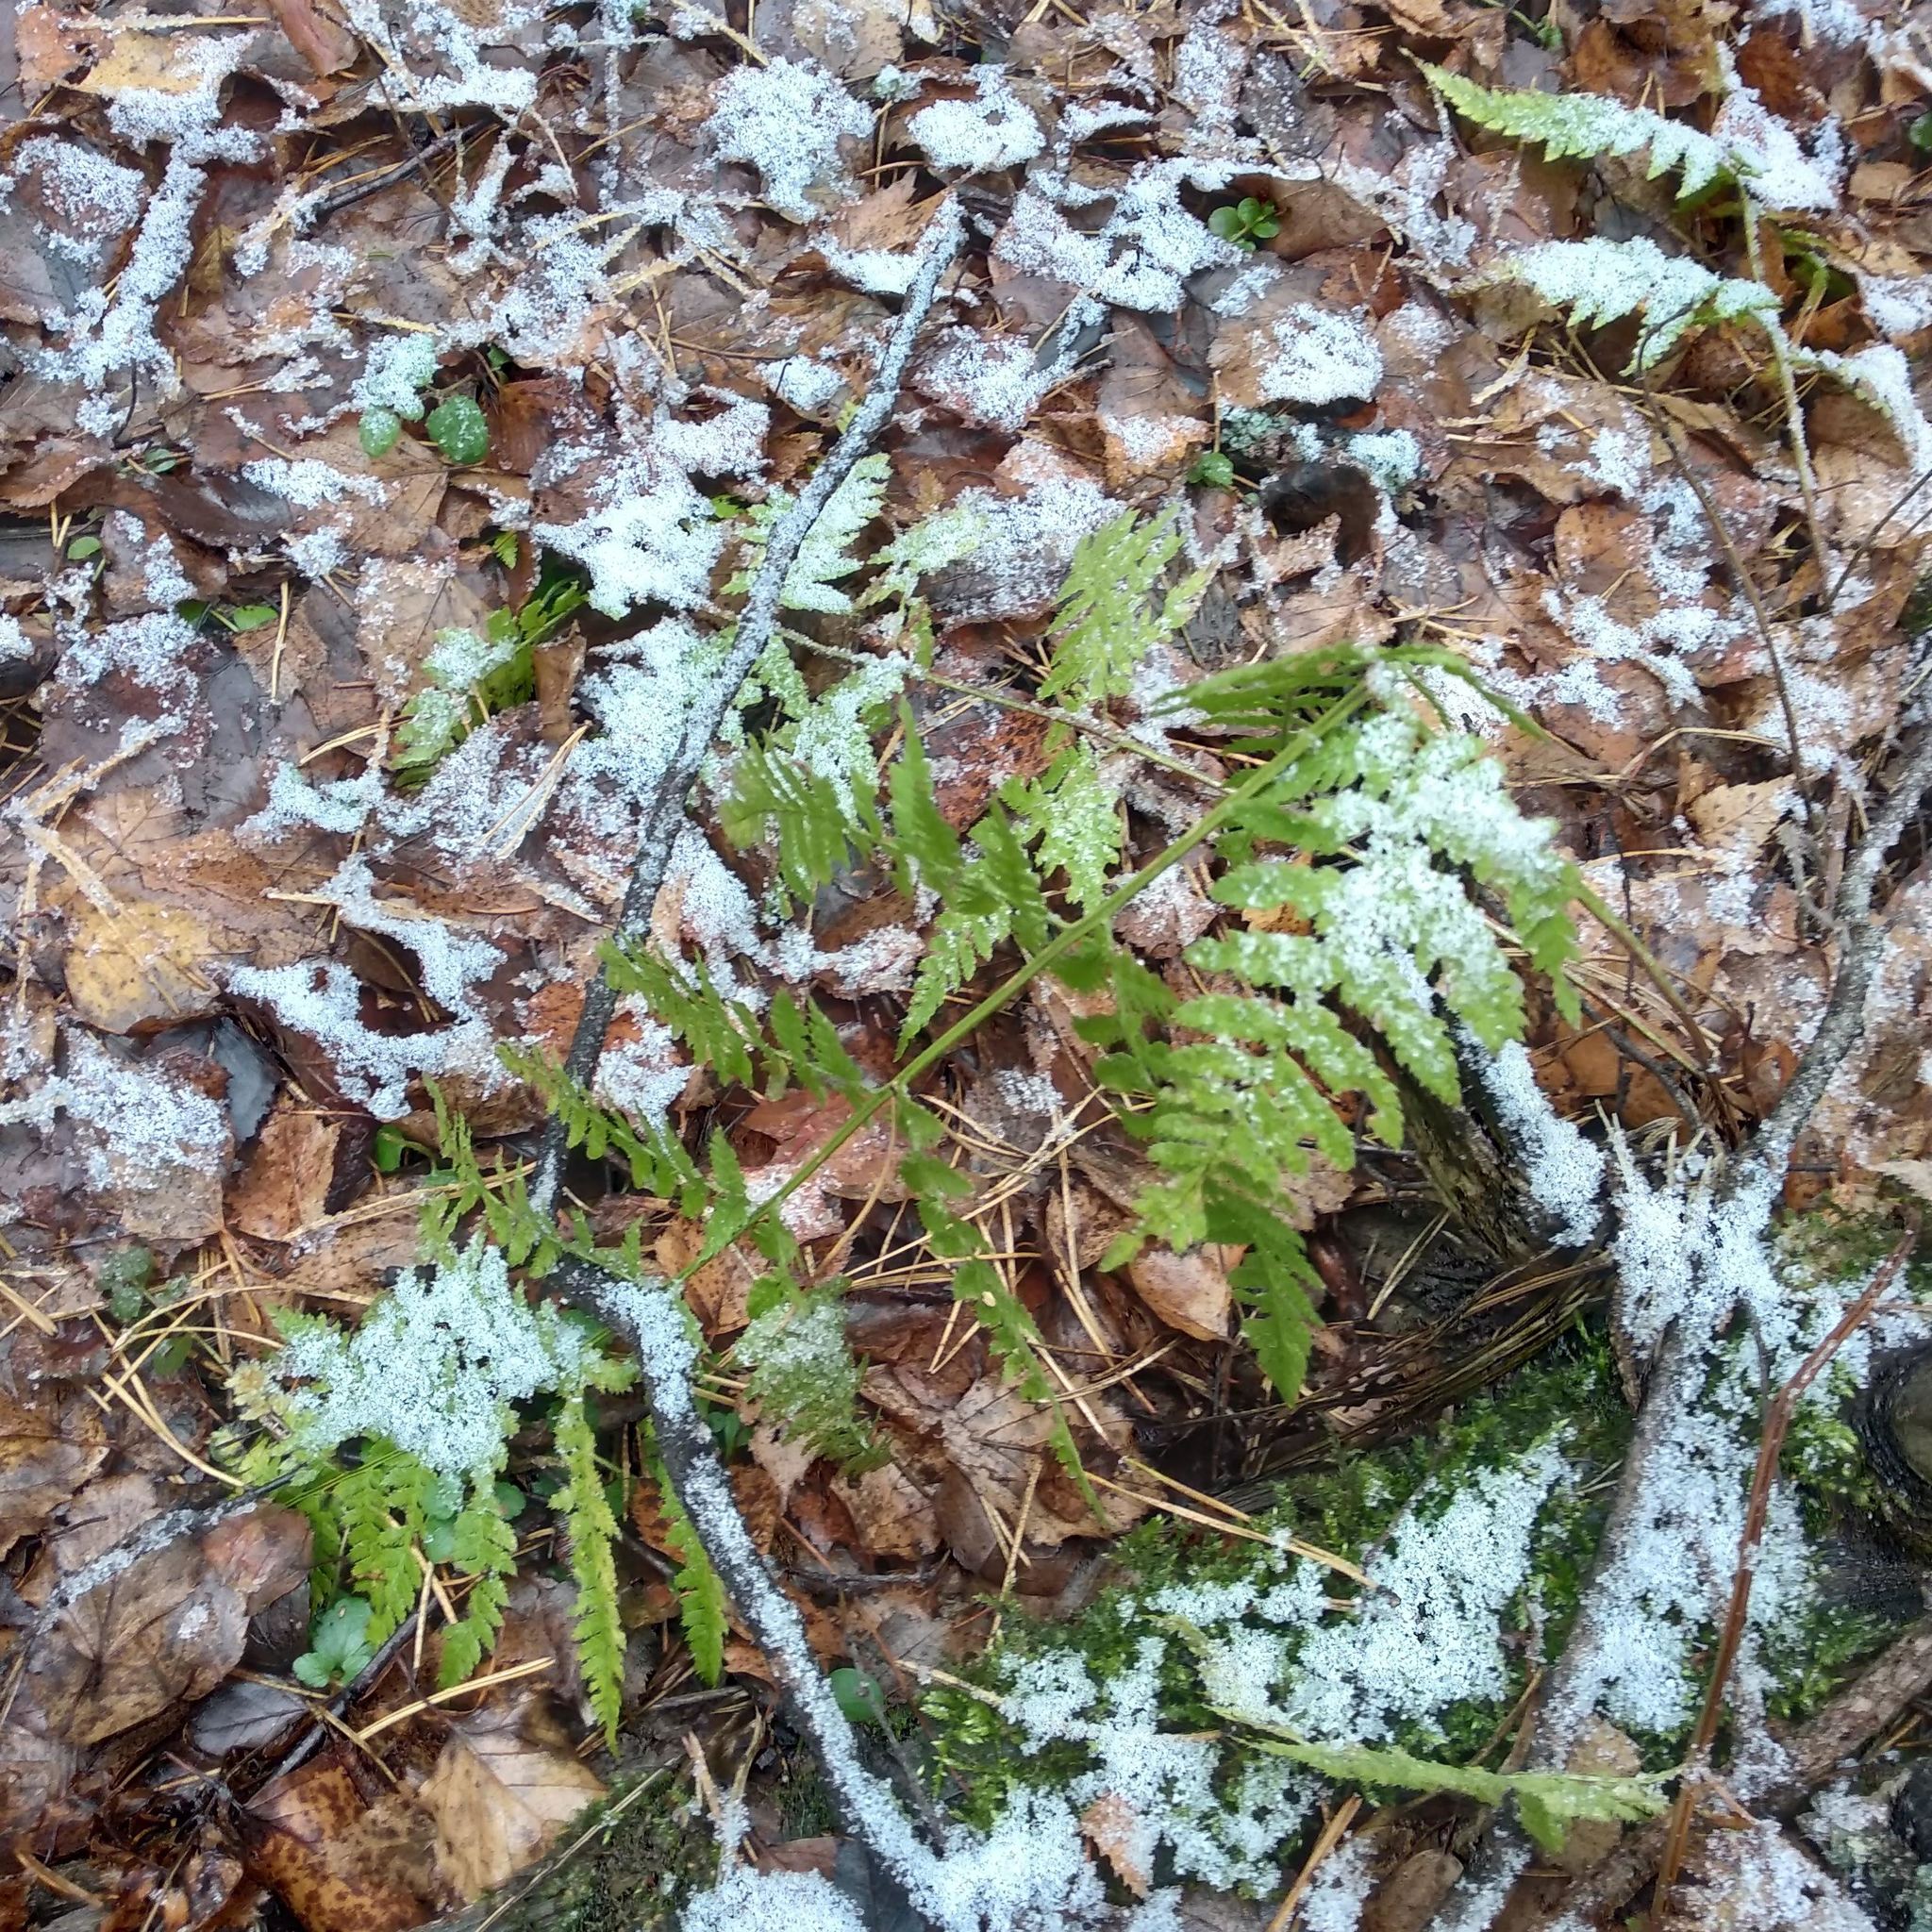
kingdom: Plantae
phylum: Tracheophyta
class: Polypodiopsida
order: Polypodiales
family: Dryopteridaceae
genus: Dryopteris
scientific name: Dryopteris carthusiana
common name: Narrow buckler-fern
